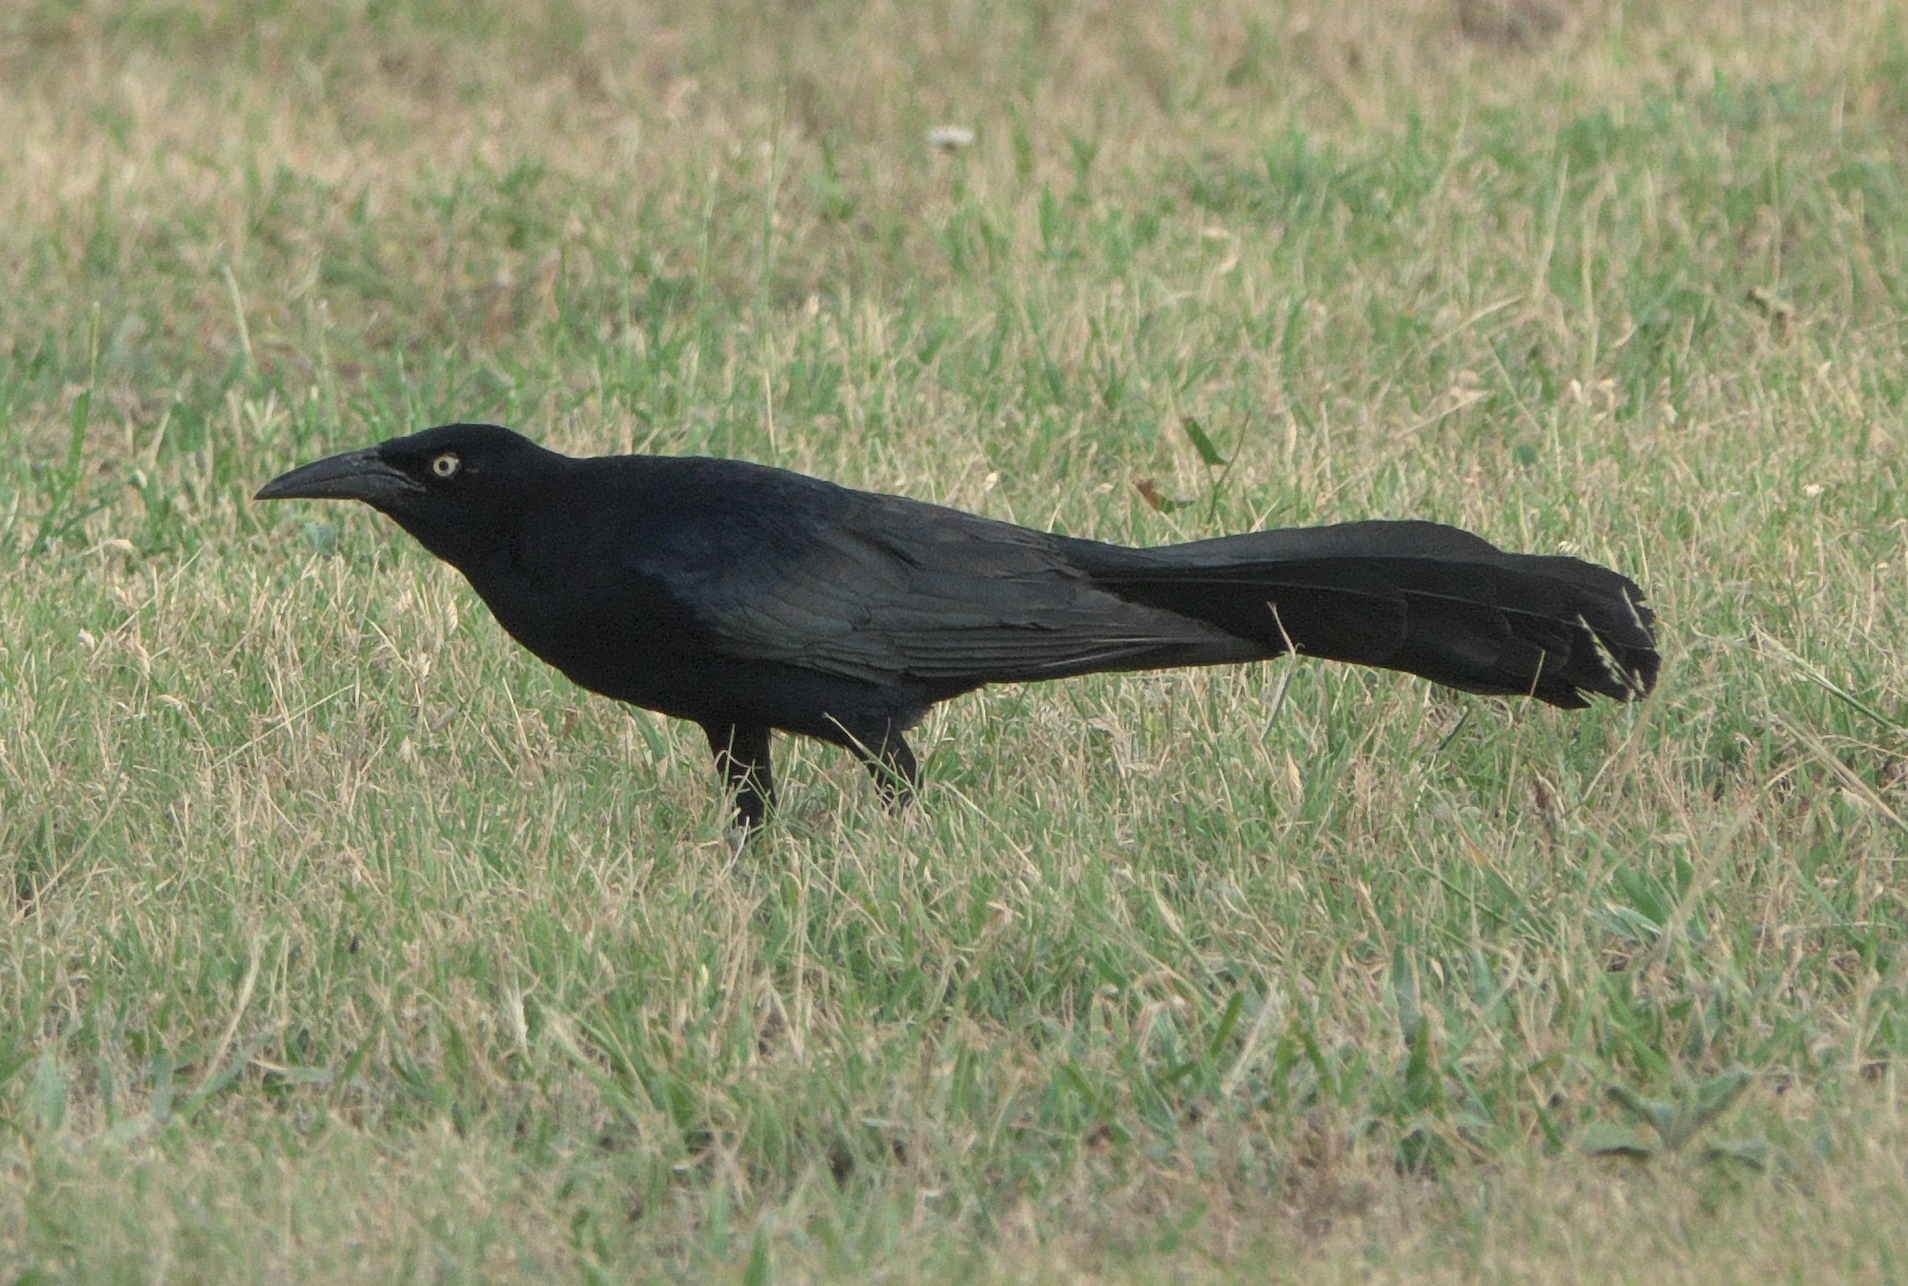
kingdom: Animalia
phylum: Chordata
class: Aves
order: Passeriformes
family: Icteridae
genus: Quiscalus
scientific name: Quiscalus mexicanus
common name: Great-tailed grackle
